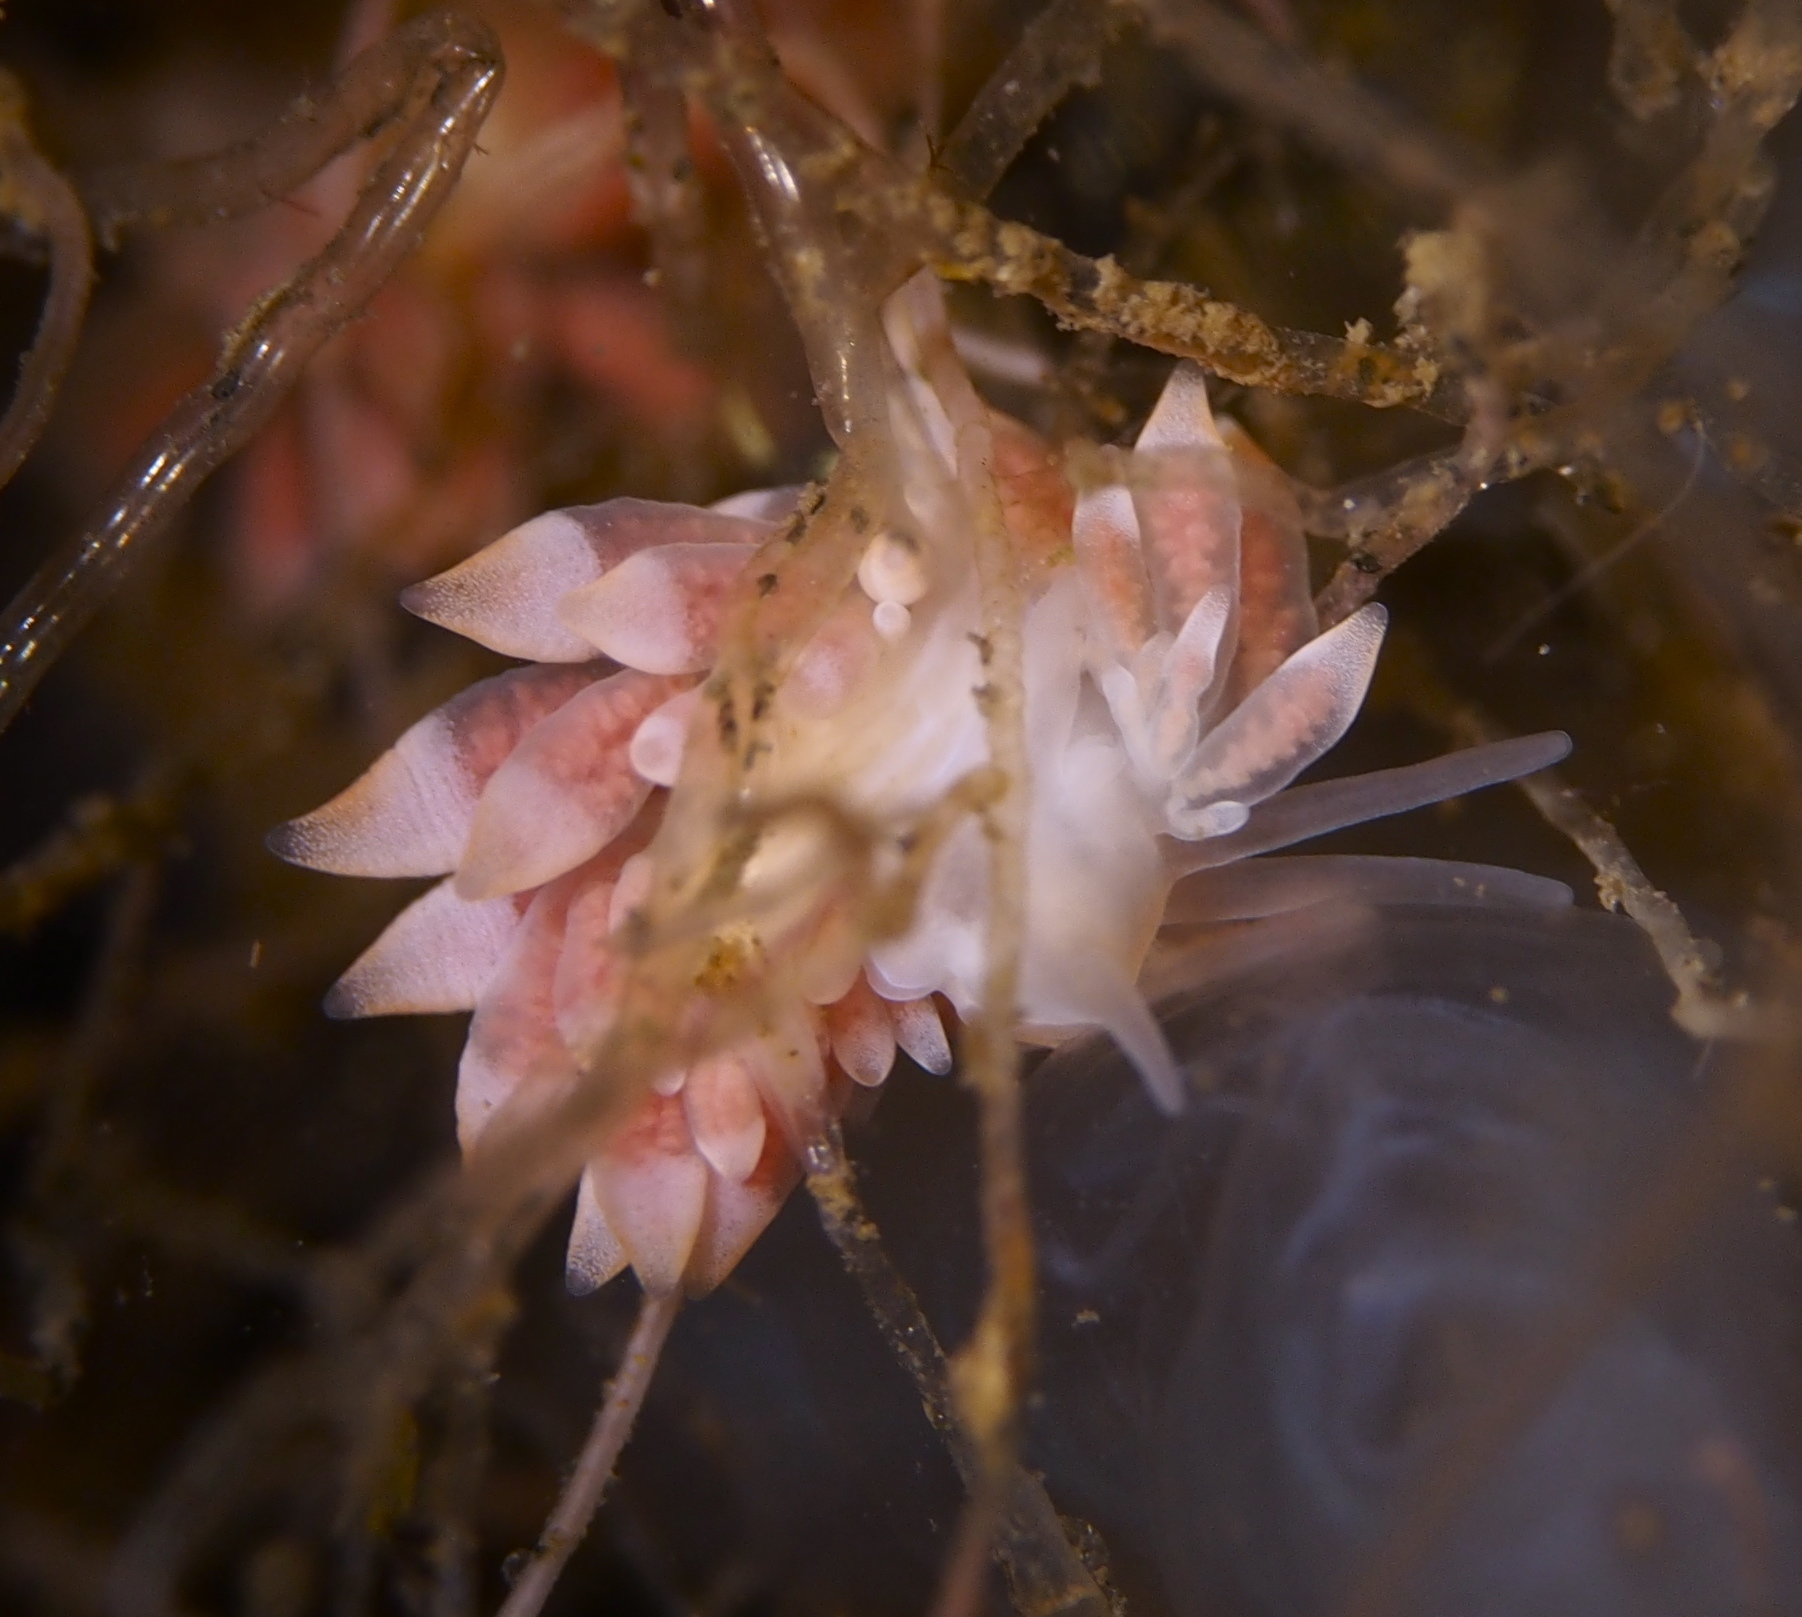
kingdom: Animalia
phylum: Mollusca
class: Gastropoda
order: Nudibranchia
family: Trinchesiidae
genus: Catriona
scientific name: Catriona aurantia
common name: Corange-tip cuthona
